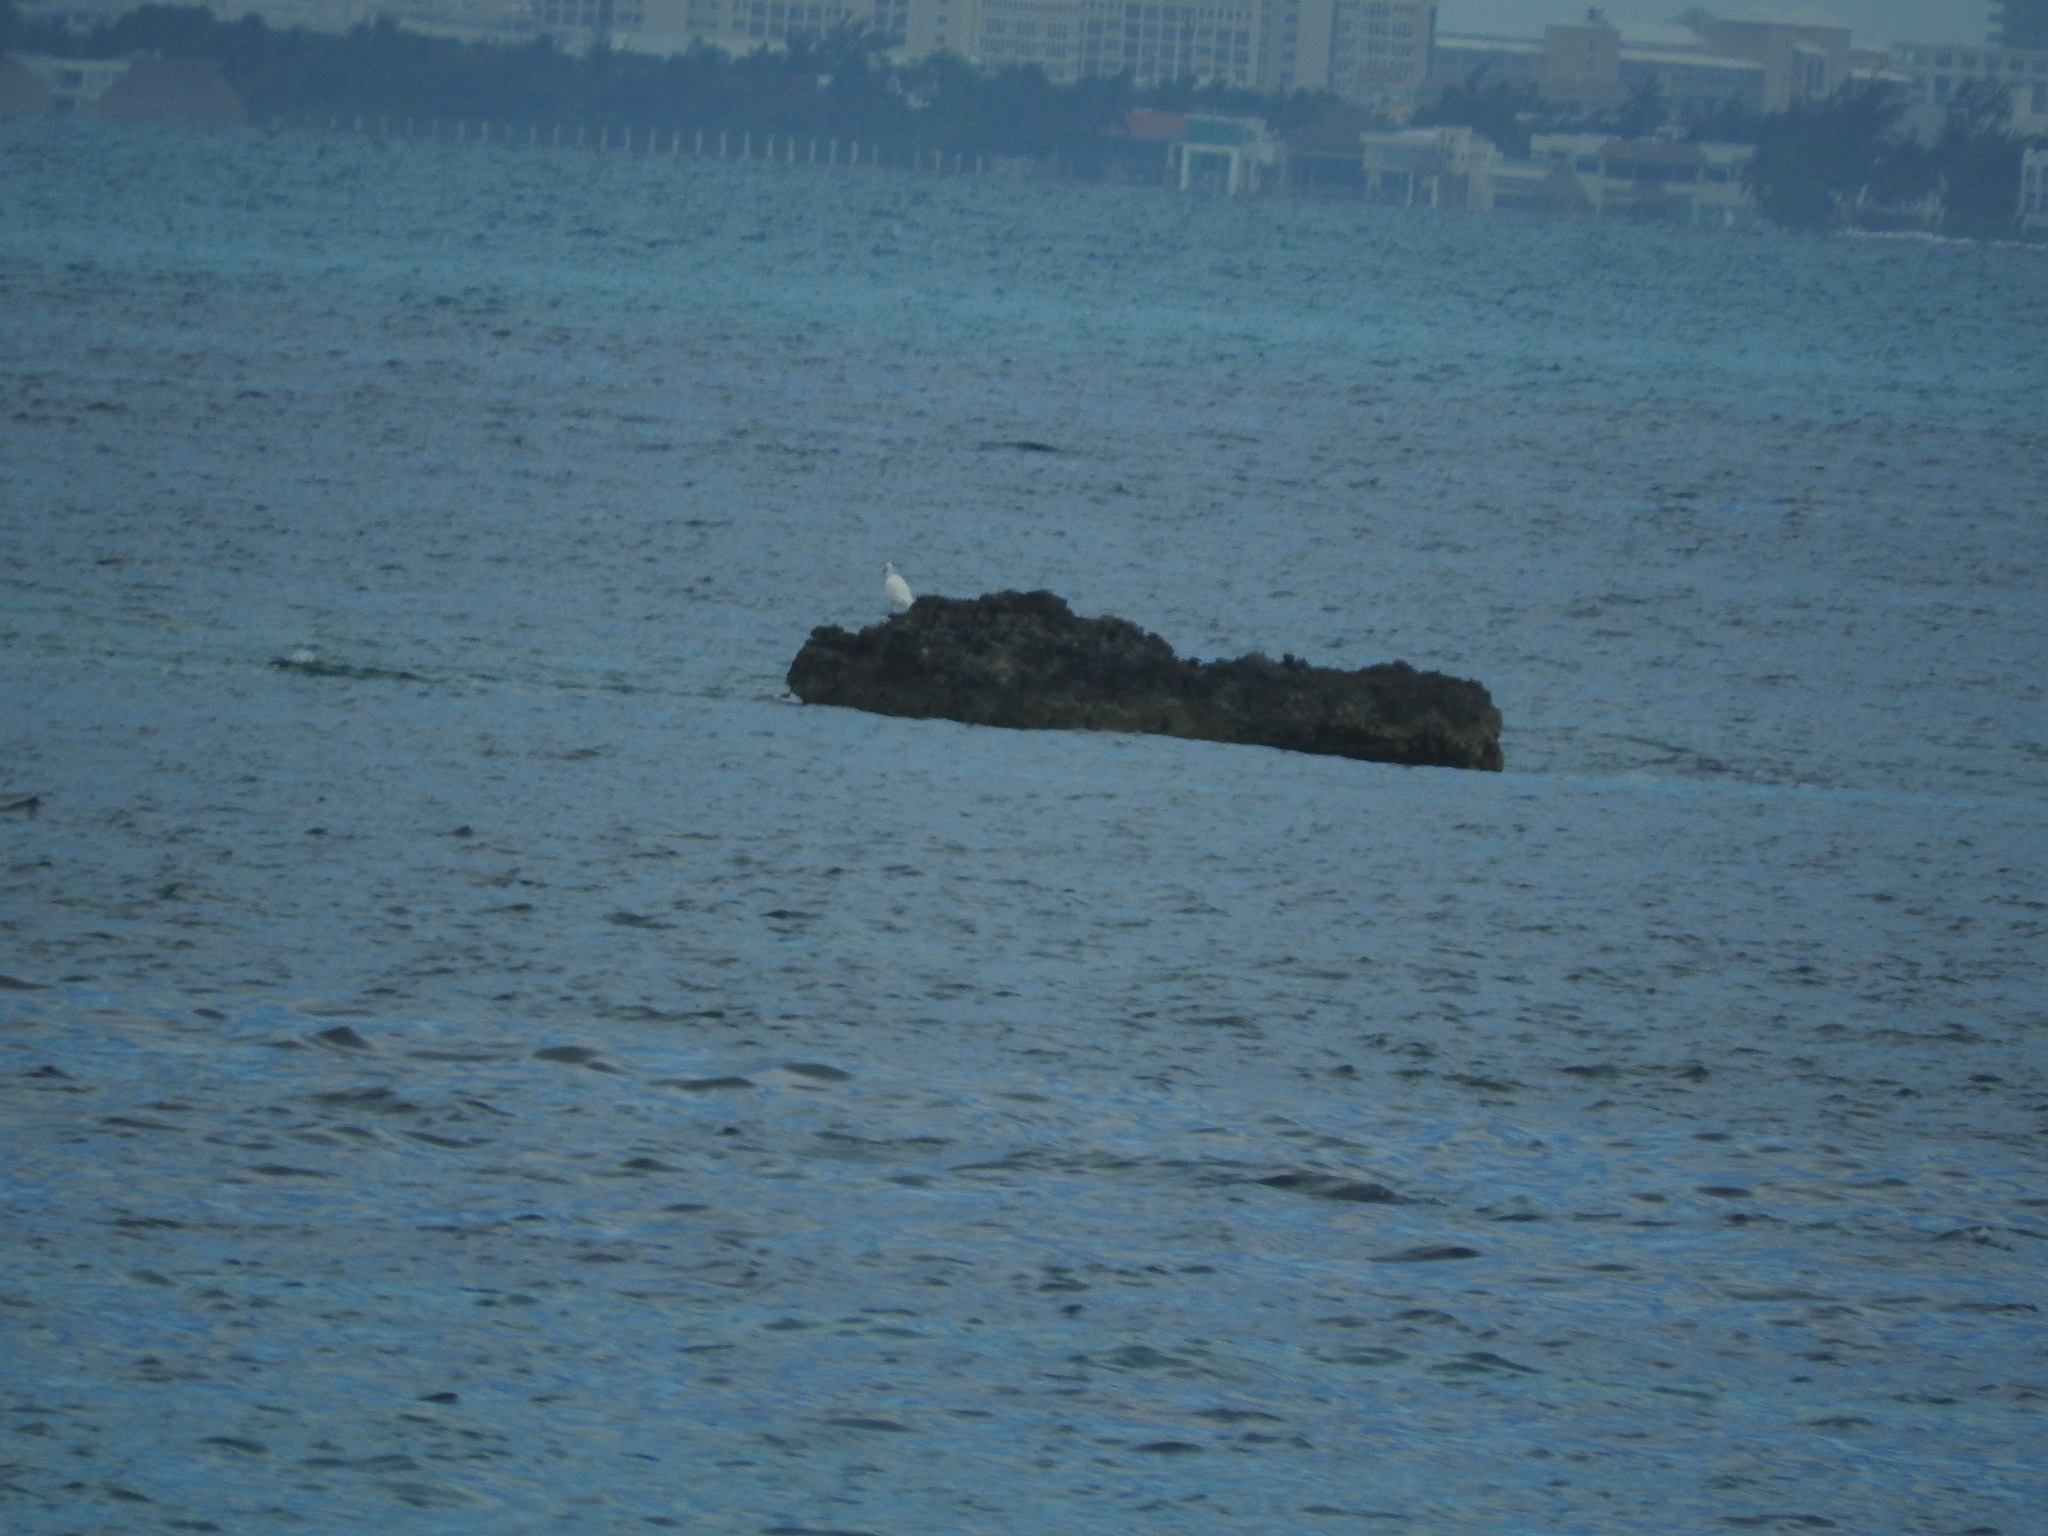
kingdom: Animalia
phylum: Chordata
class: Aves
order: Pelecaniformes
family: Ardeidae
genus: Ardea
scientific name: Ardea alba
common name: Great egret
